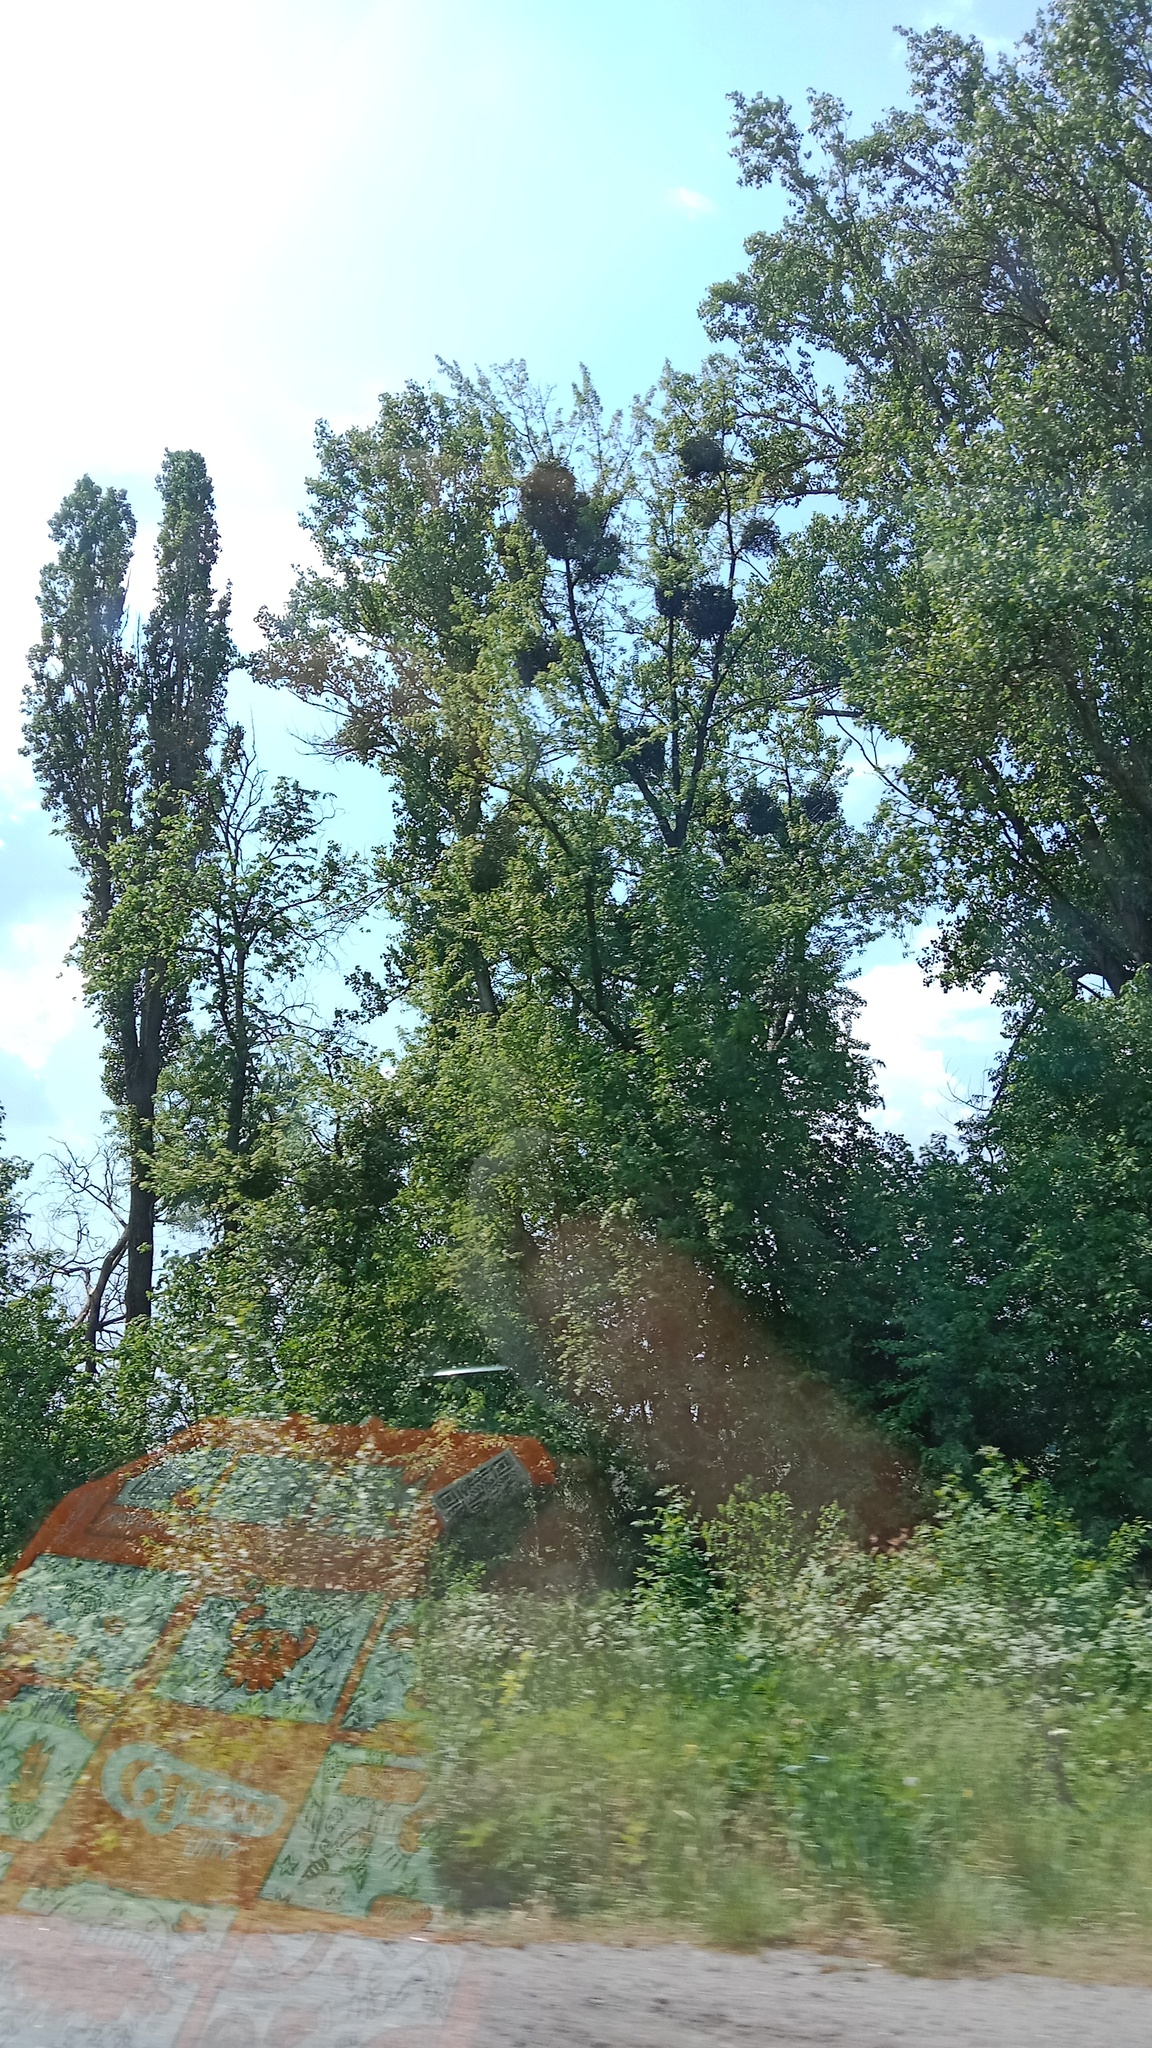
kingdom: Plantae
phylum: Tracheophyta
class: Magnoliopsida
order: Santalales
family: Viscaceae
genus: Viscum
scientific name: Viscum album
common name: Mistletoe
